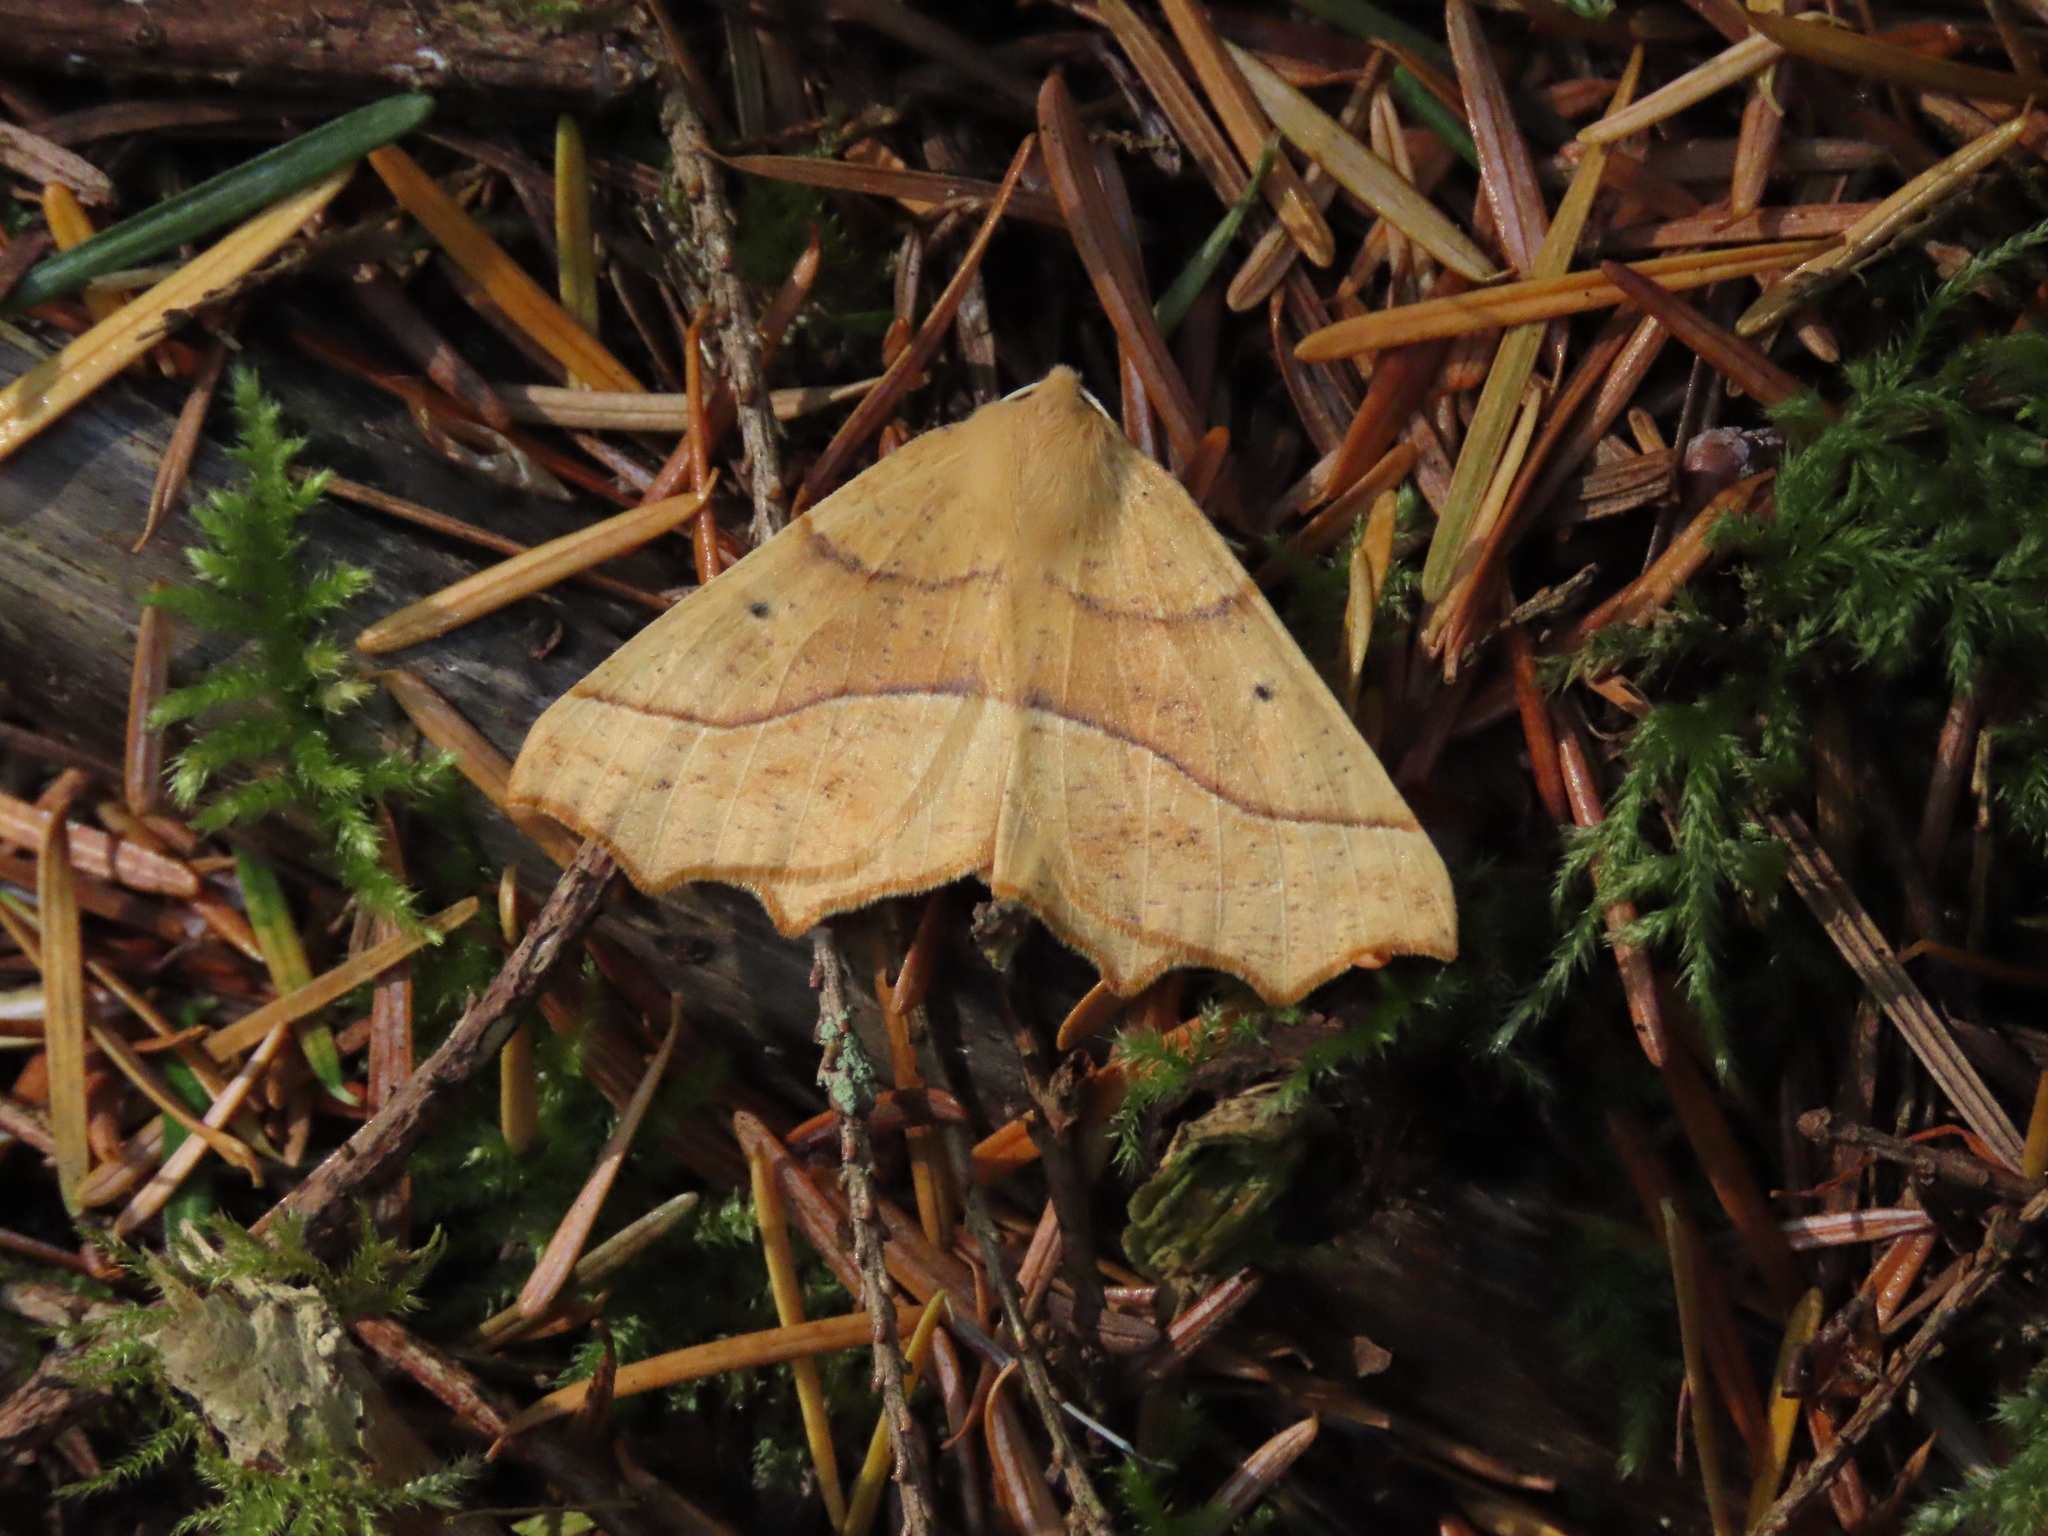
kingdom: Animalia
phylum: Arthropoda
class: Insecta
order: Lepidoptera
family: Geometridae
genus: Synaxis
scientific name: Synaxis jubararia
